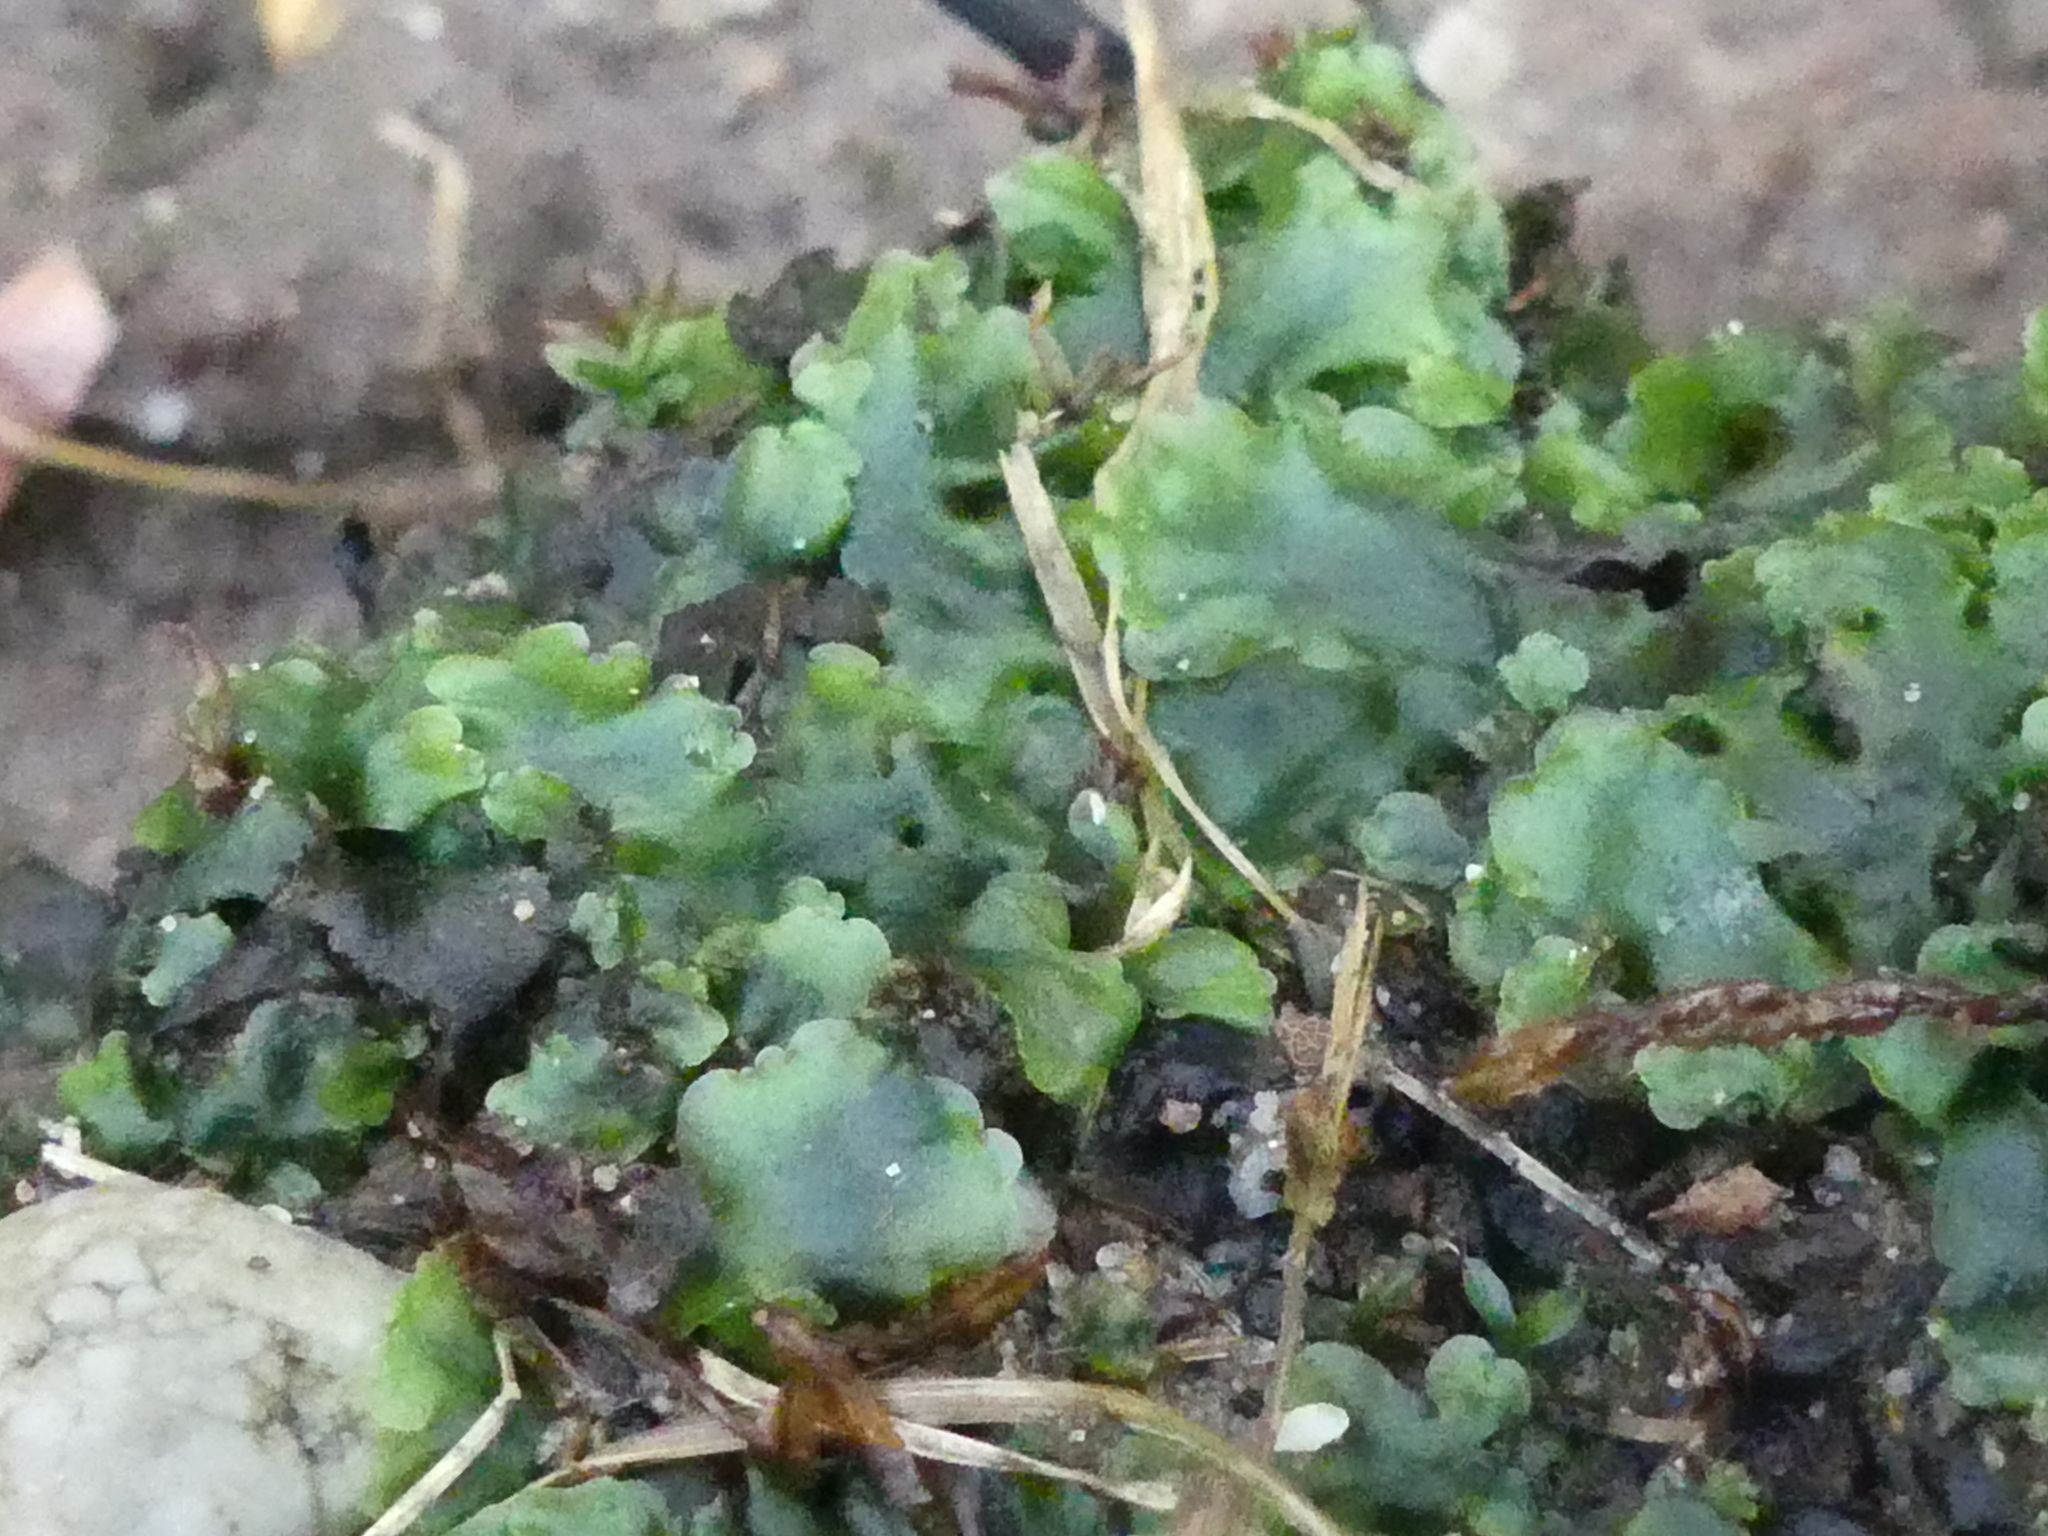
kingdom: Plantae
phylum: Marchantiophyta
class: Jungermanniopsida
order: Pelliales
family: Pelliaceae
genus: Pellia
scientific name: Pellia epiphylla
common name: Common pellia
